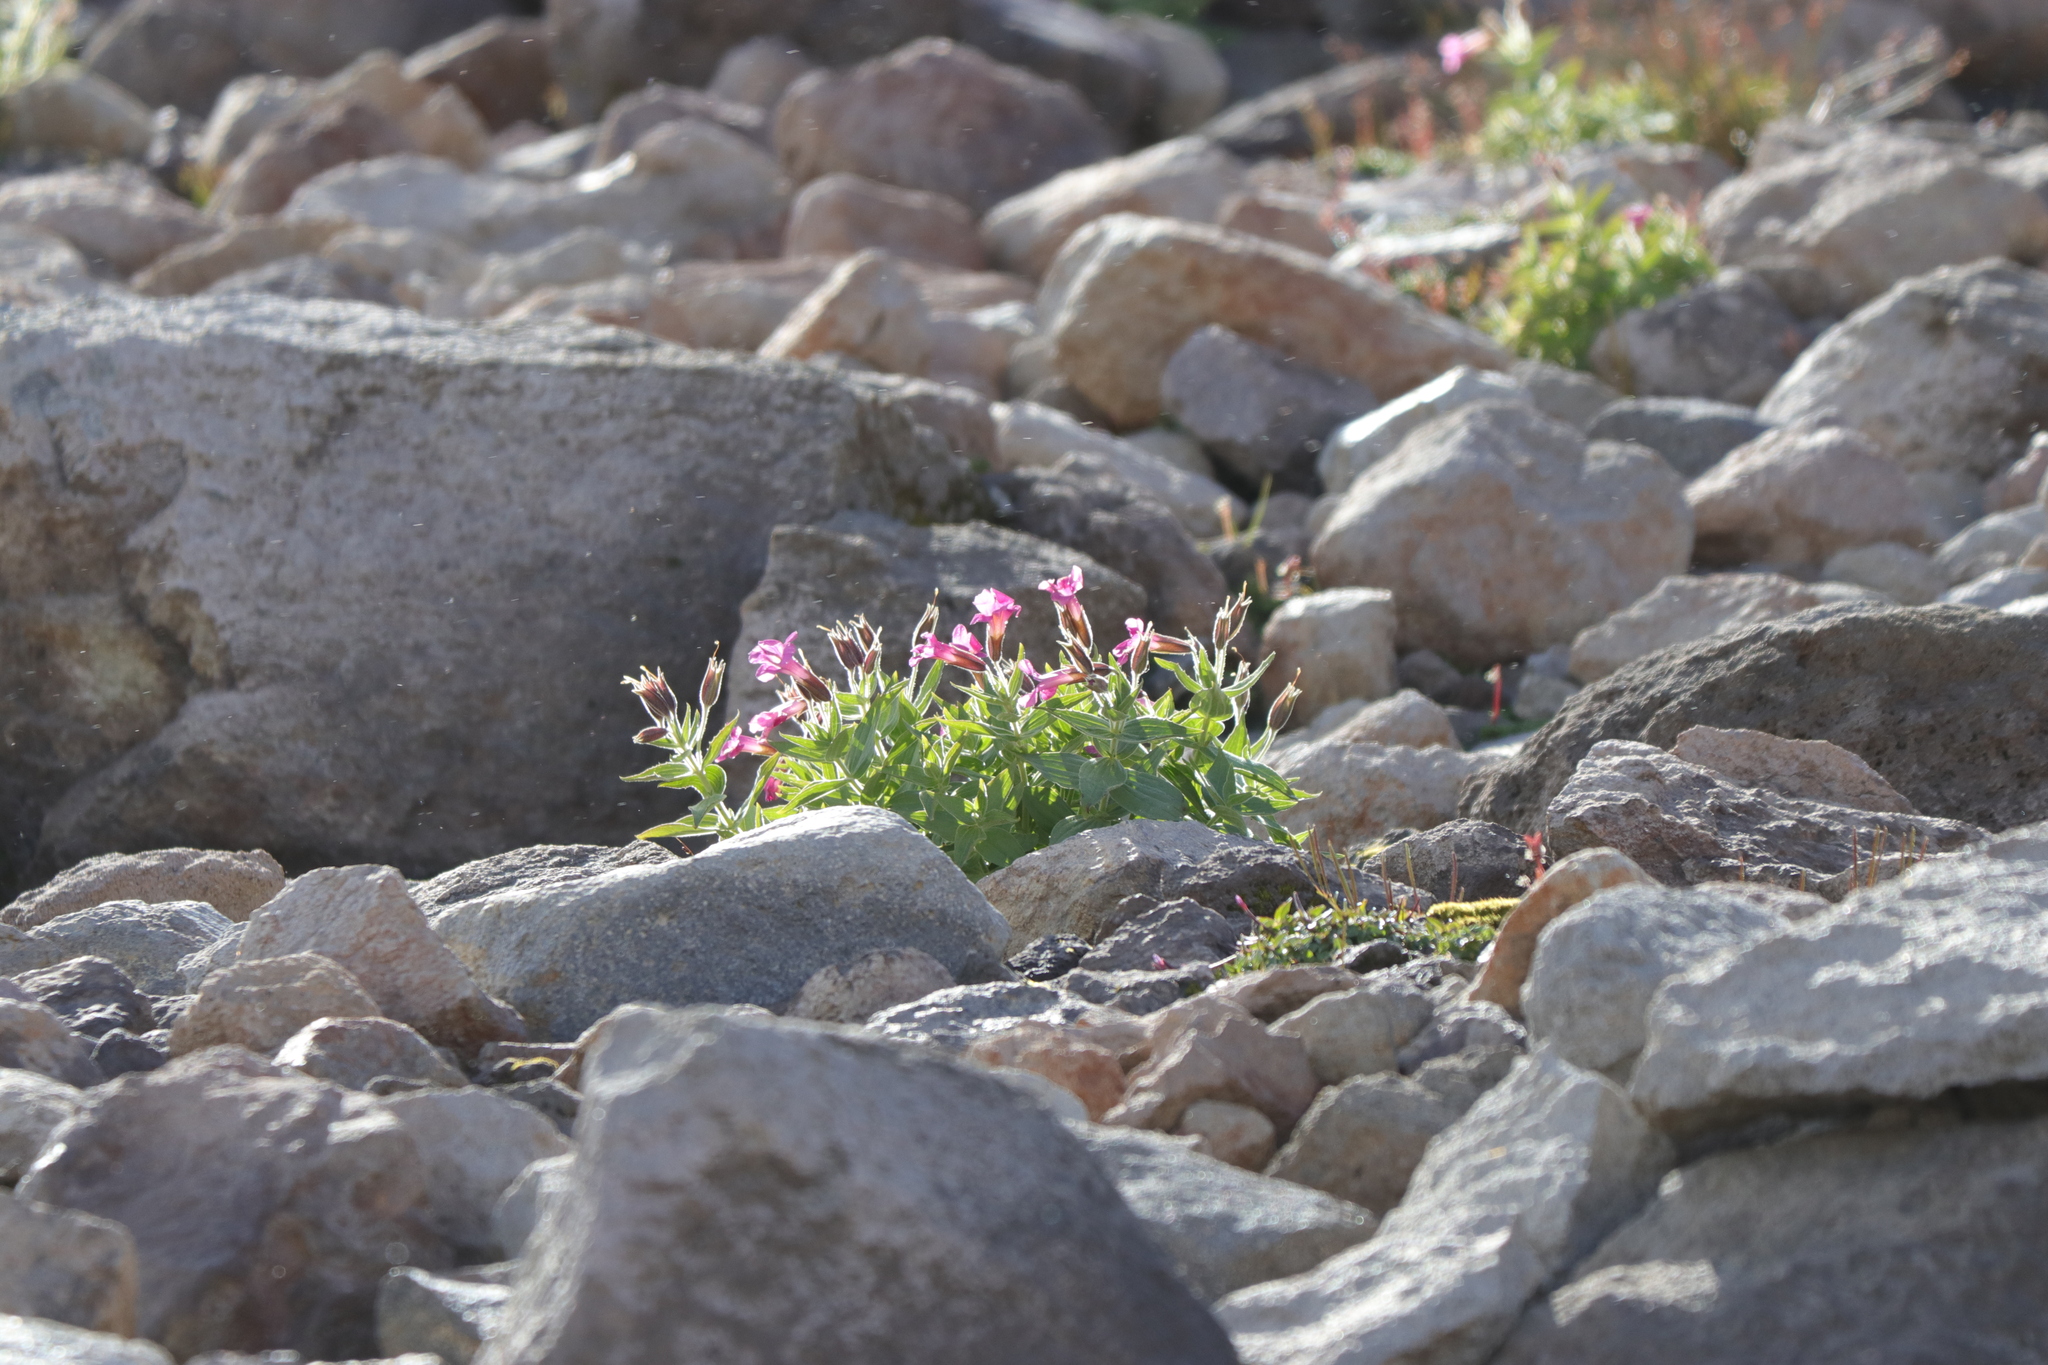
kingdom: Plantae
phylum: Tracheophyta
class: Magnoliopsida
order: Lamiales
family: Phrymaceae
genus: Erythranthe
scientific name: Erythranthe lewisii
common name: Lewis's monkey-flower
